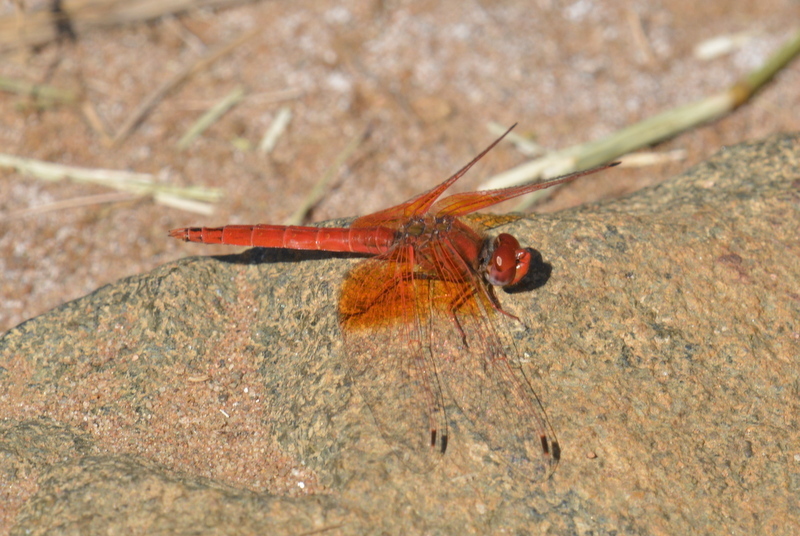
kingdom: Animalia
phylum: Arthropoda
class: Insecta
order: Odonata
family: Libellulidae
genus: Trithemis
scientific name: Trithemis kirbyi
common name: Kirby's dropwing
